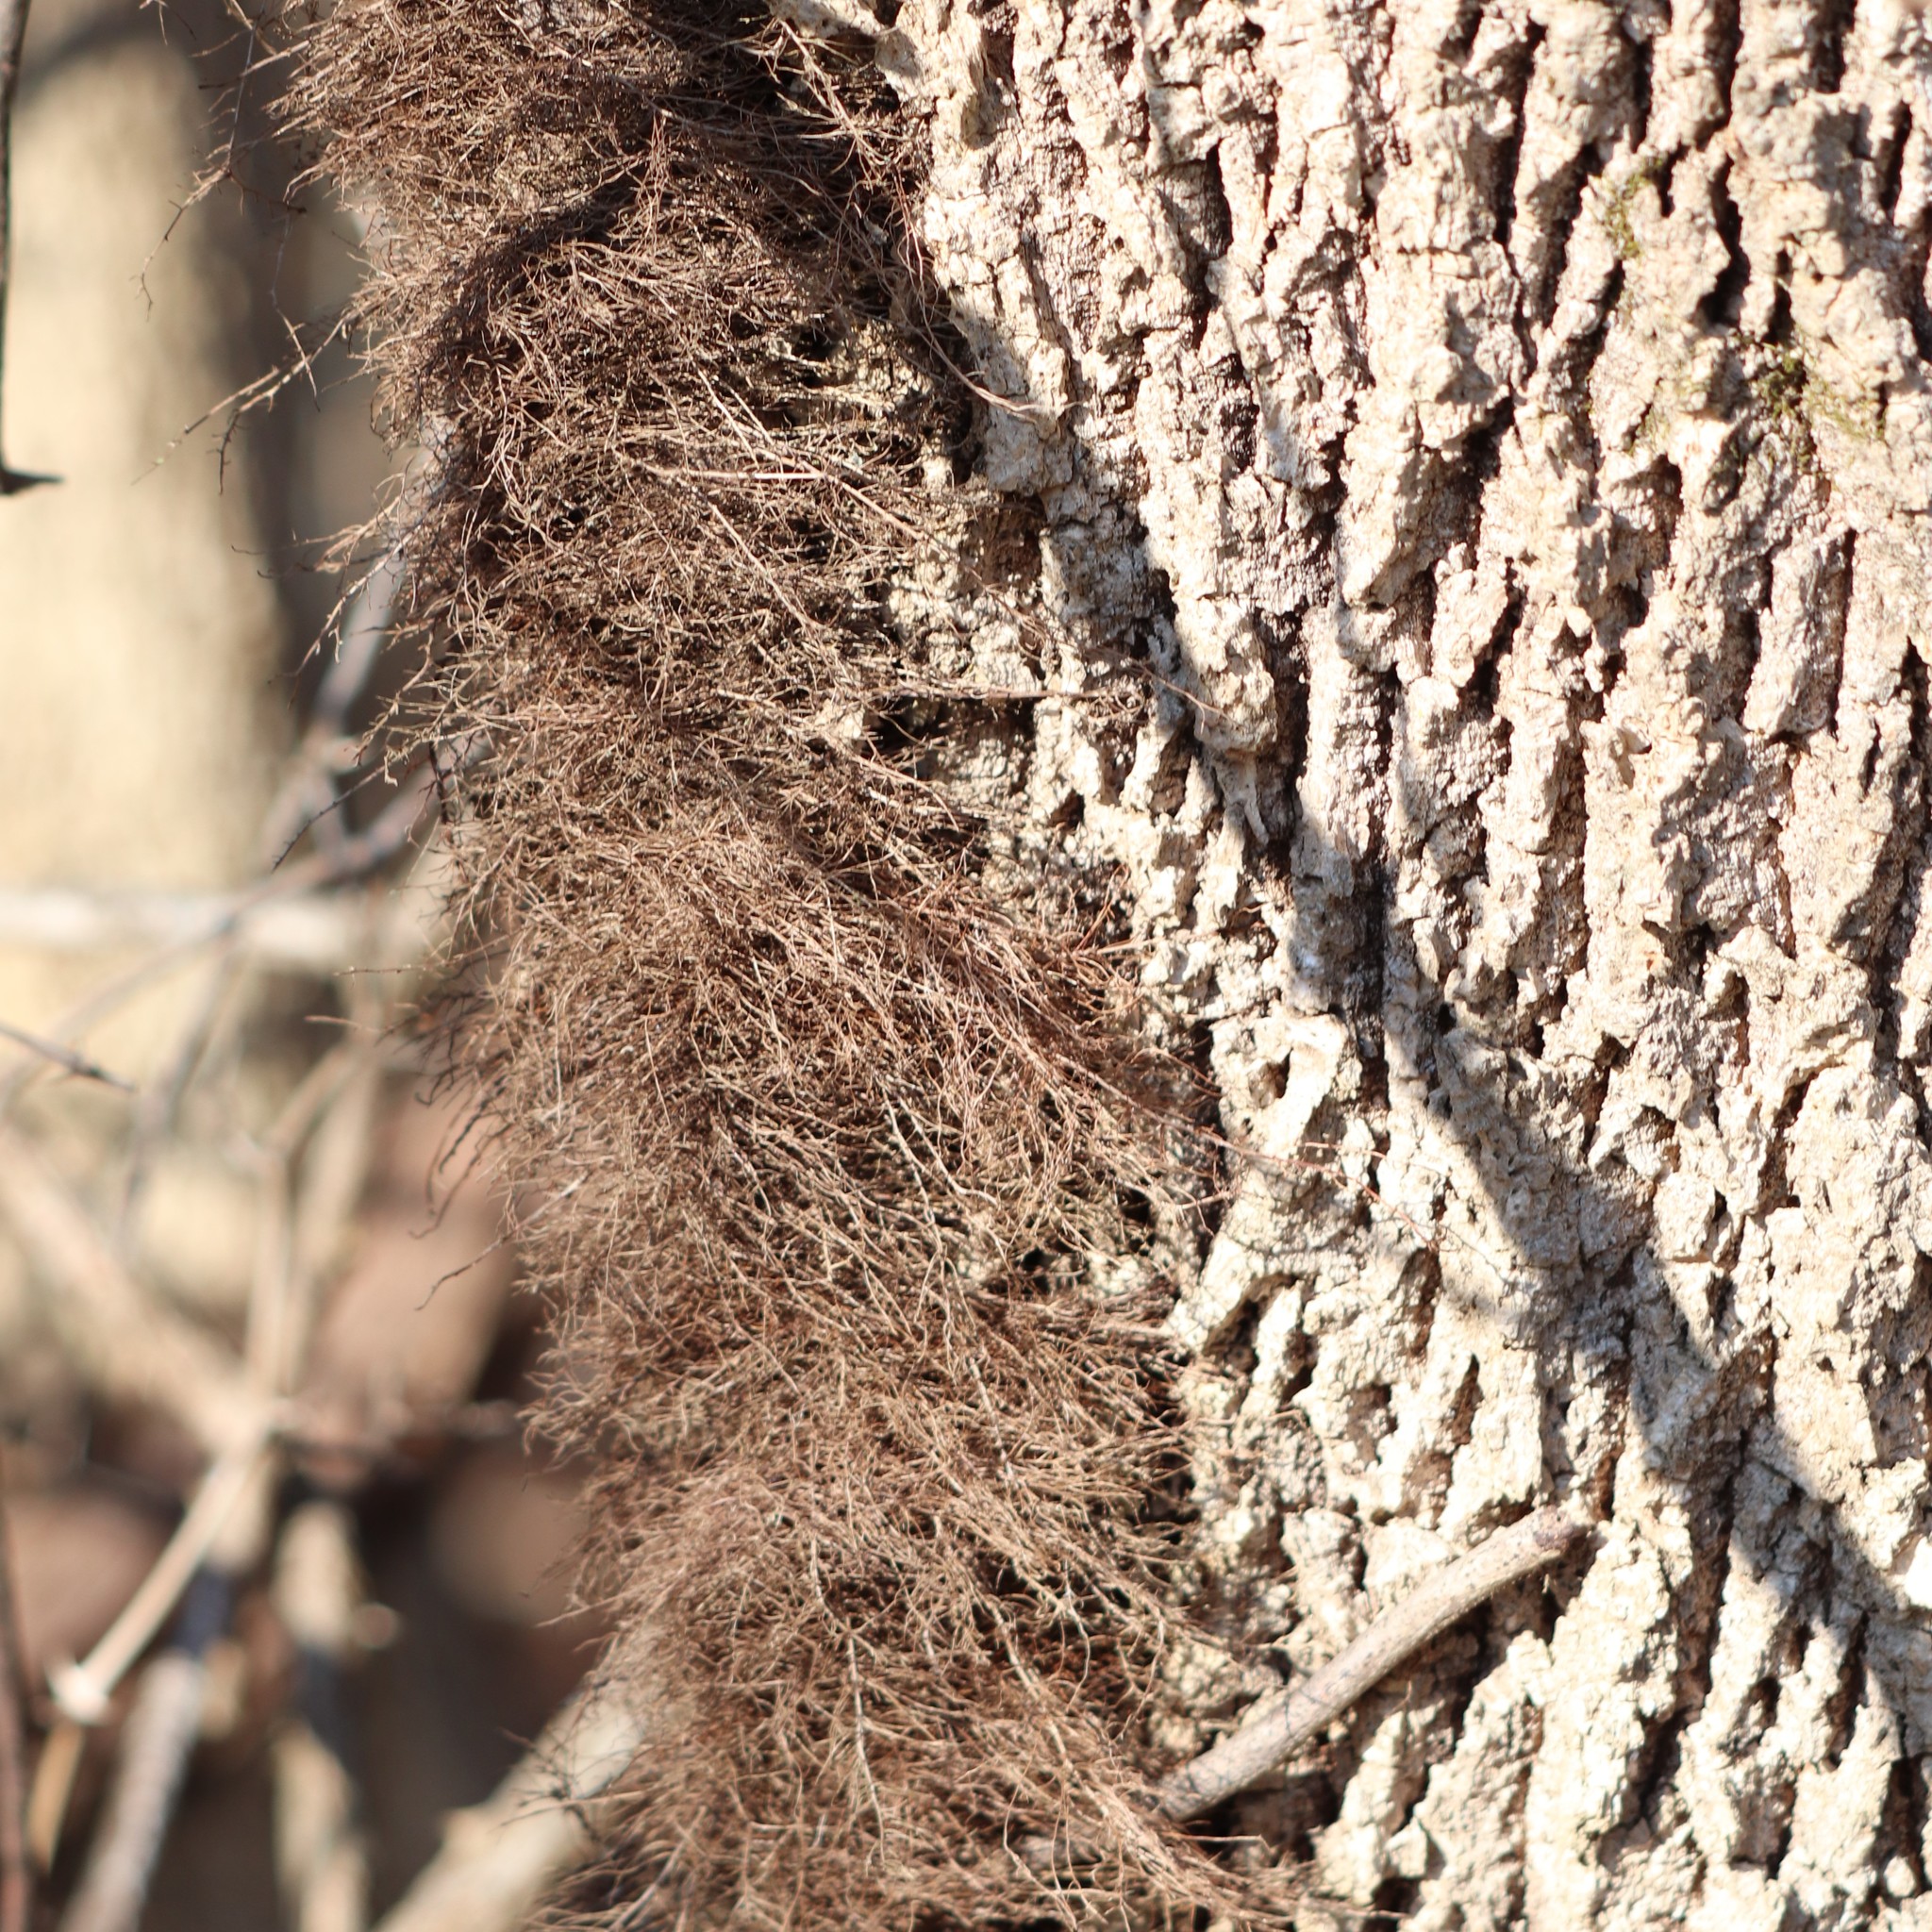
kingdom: Plantae
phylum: Tracheophyta
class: Magnoliopsida
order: Sapindales
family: Anacardiaceae
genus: Toxicodendron
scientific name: Toxicodendron radicans
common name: Poison ivy
